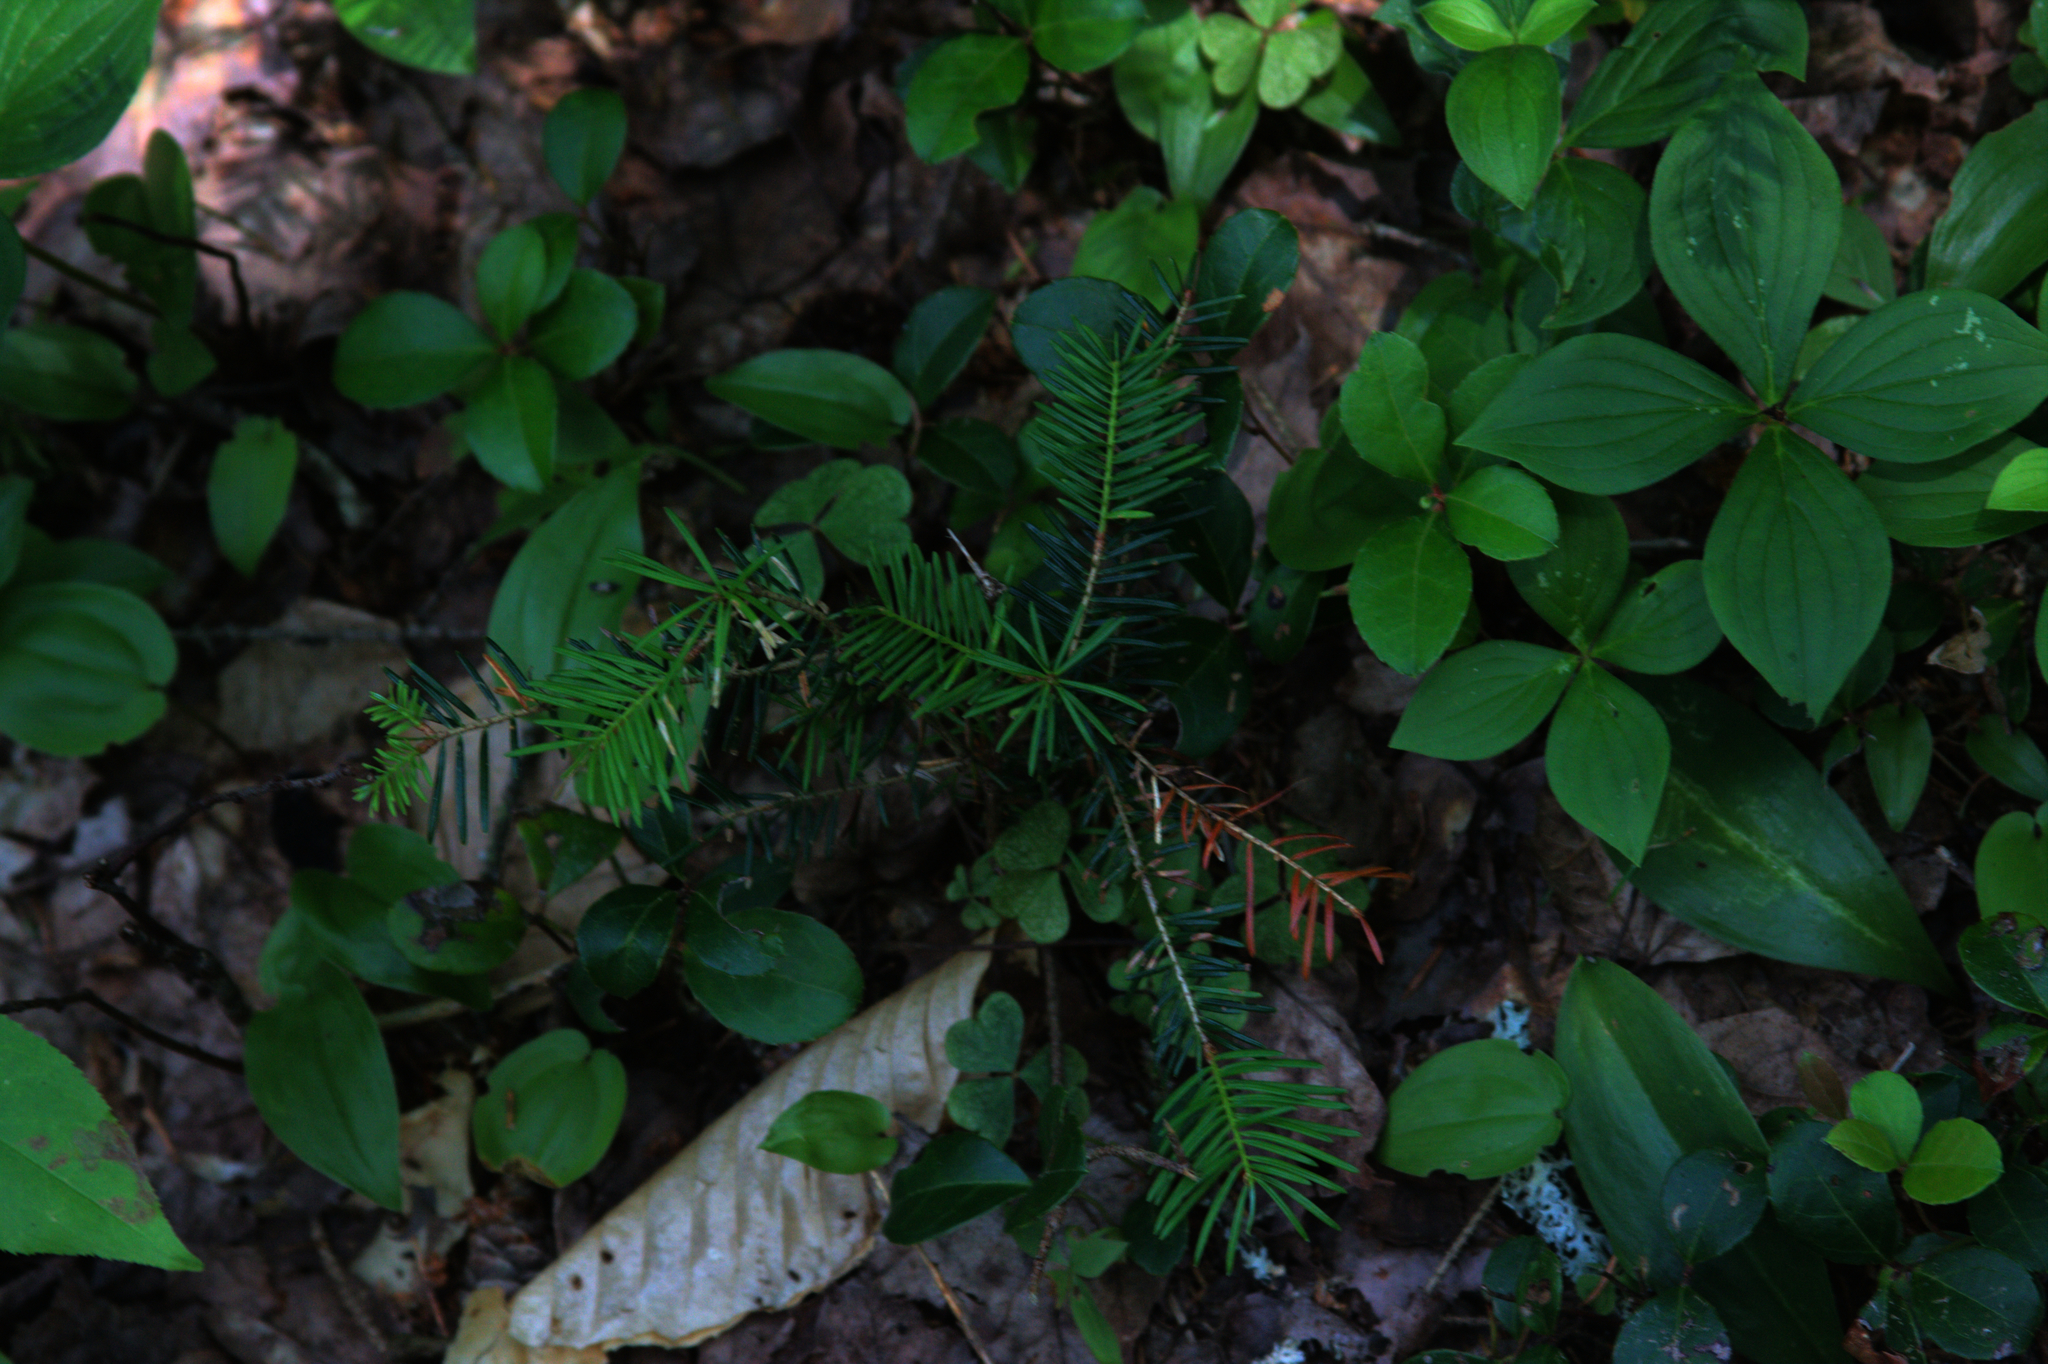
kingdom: Plantae
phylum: Tracheophyta
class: Magnoliopsida
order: Cornales
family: Cornaceae
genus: Cornus
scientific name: Cornus canadensis
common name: Creeping dogwood
